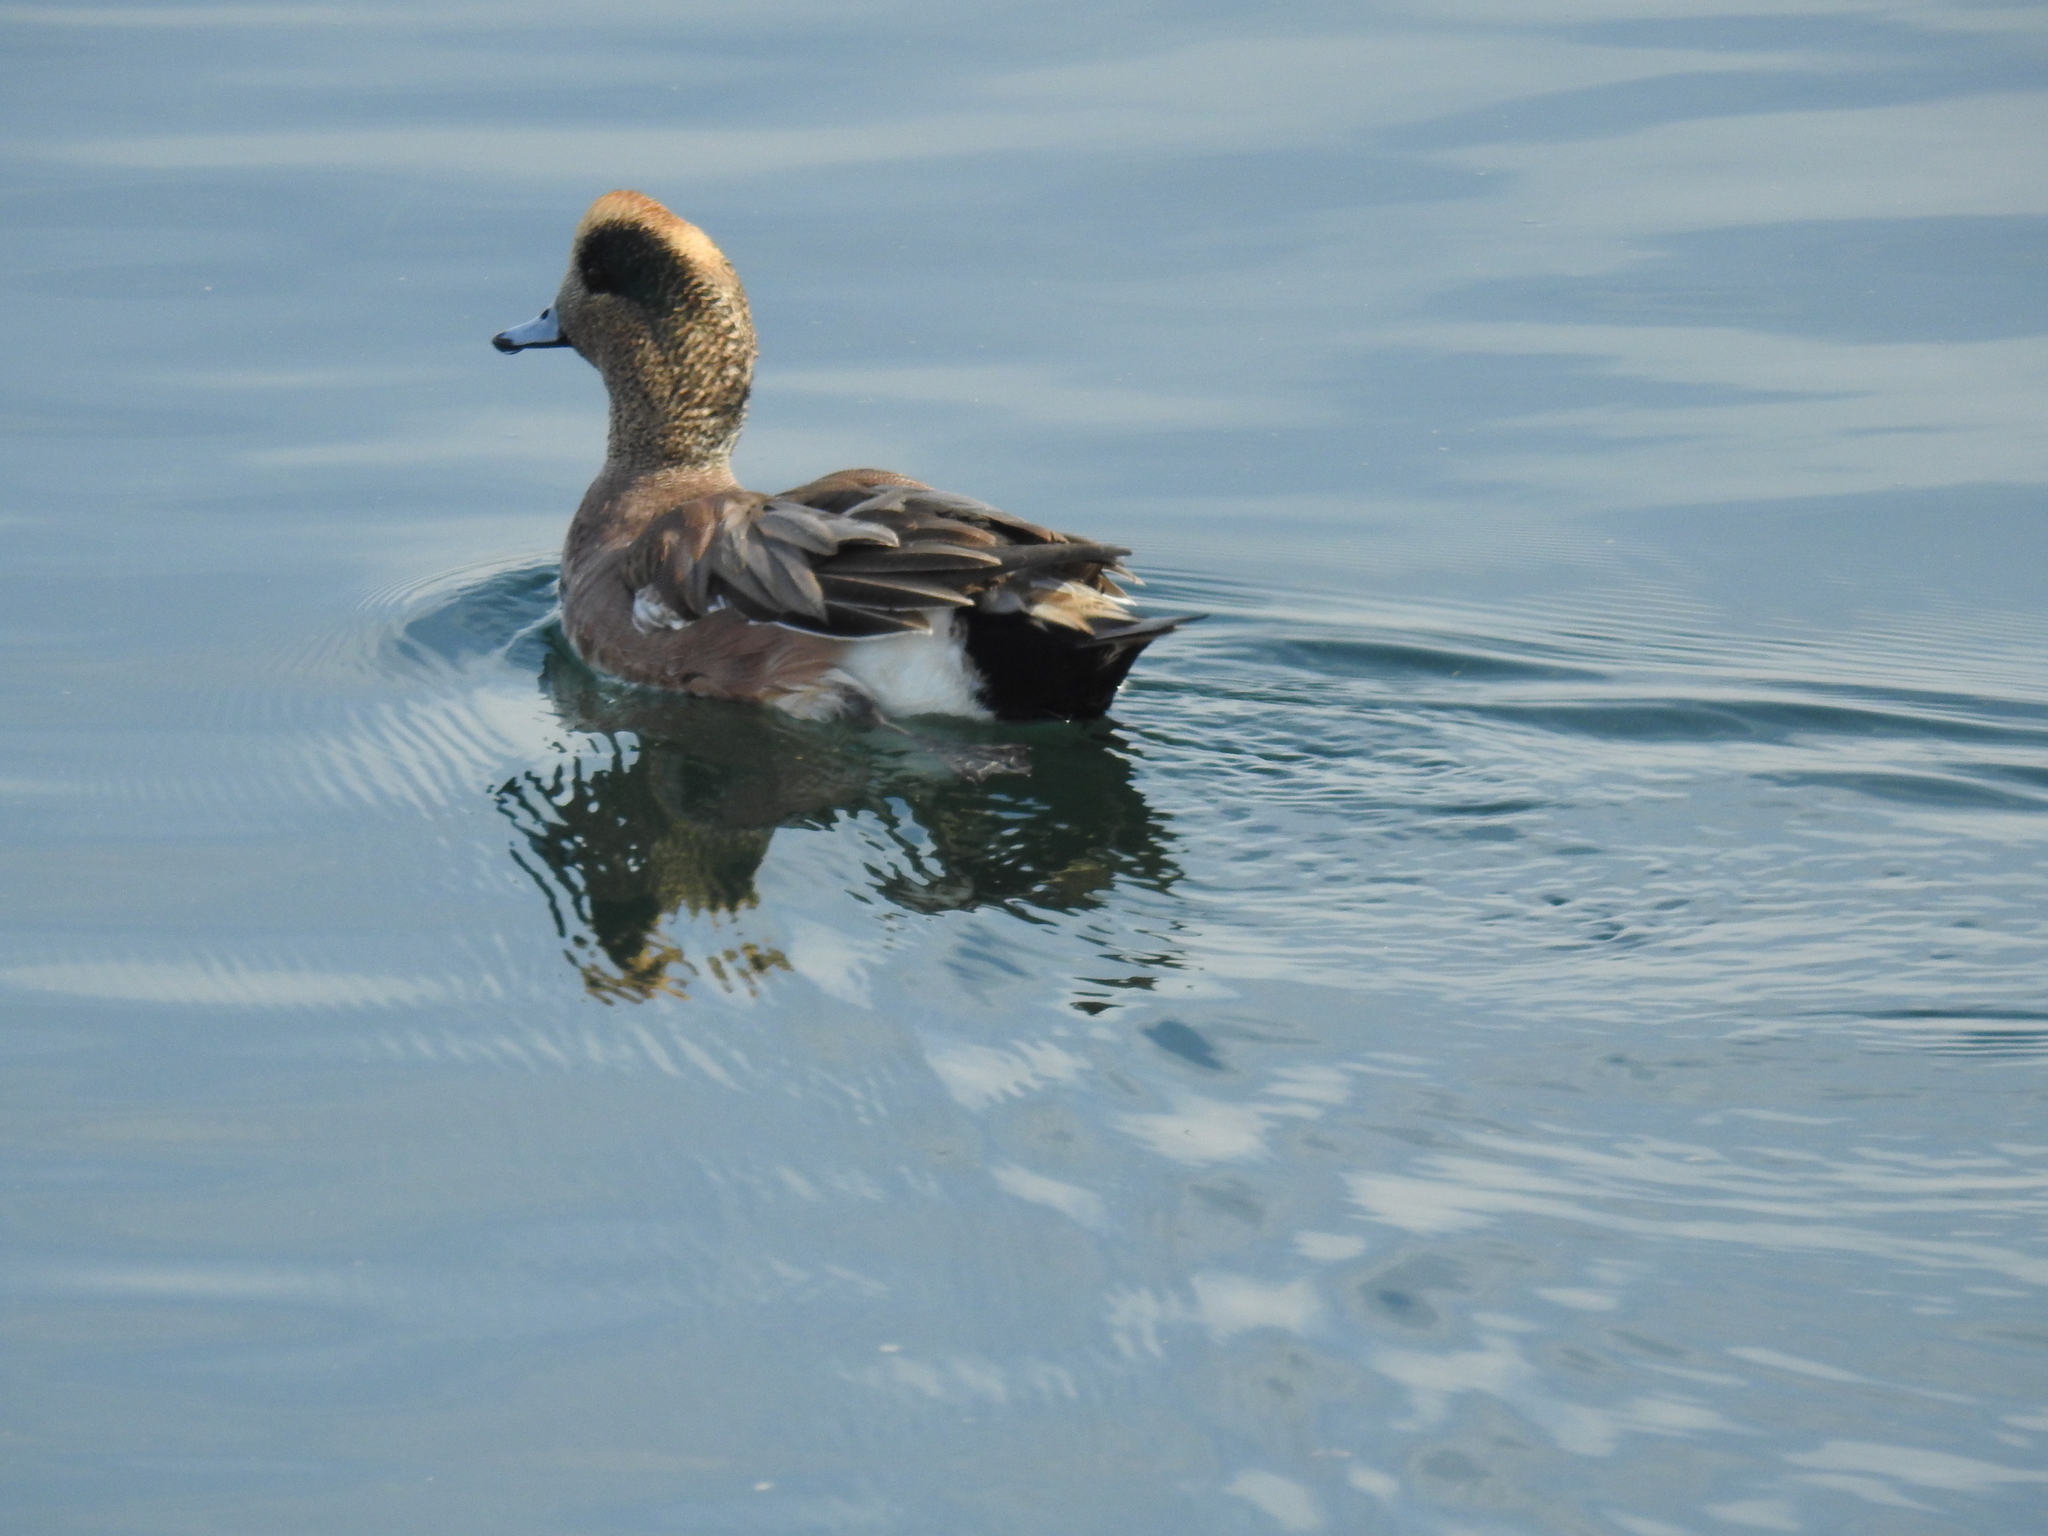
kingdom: Animalia
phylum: Chordata
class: Aves
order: Anseriformes
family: Anatidae
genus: Mareca
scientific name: Mareca americana
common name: American wigeon
